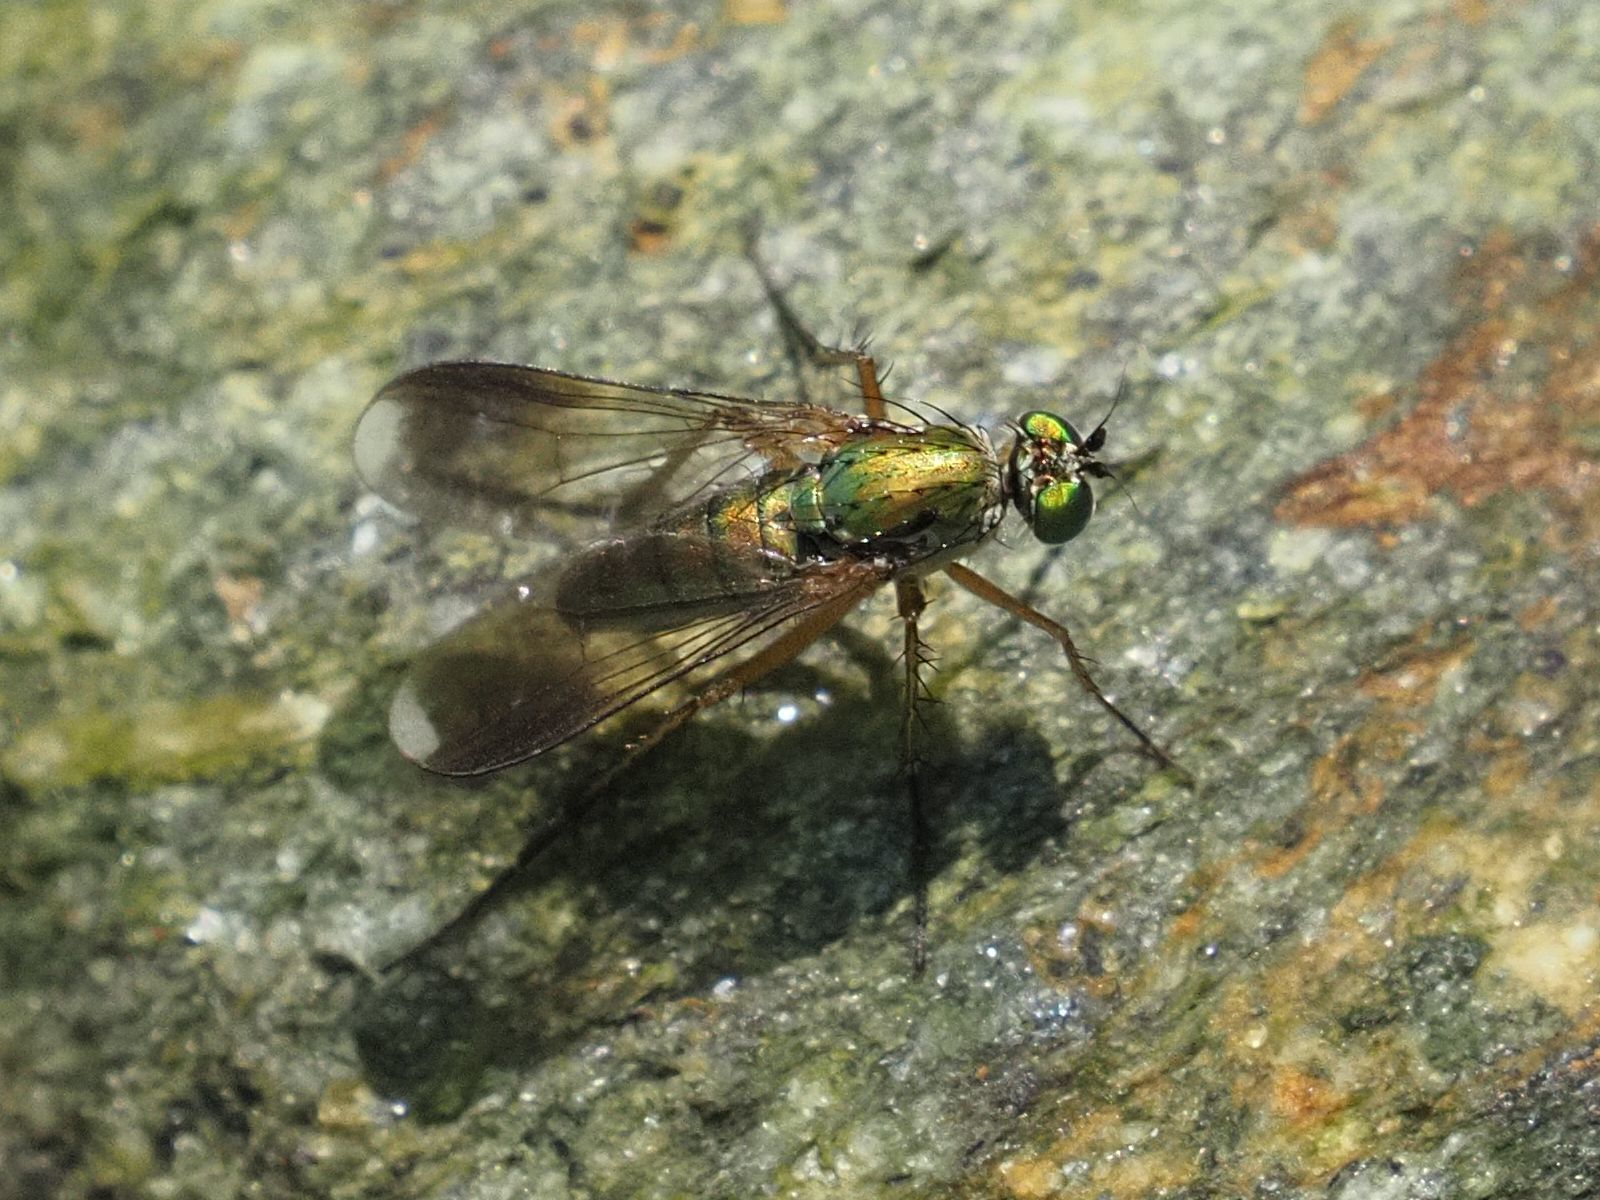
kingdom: Animalia
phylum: Arthropoda
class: Insecta
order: Diptera
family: Dolichopodidae
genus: Poecilobothrus
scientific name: Poecilobothrus nobilitatus
